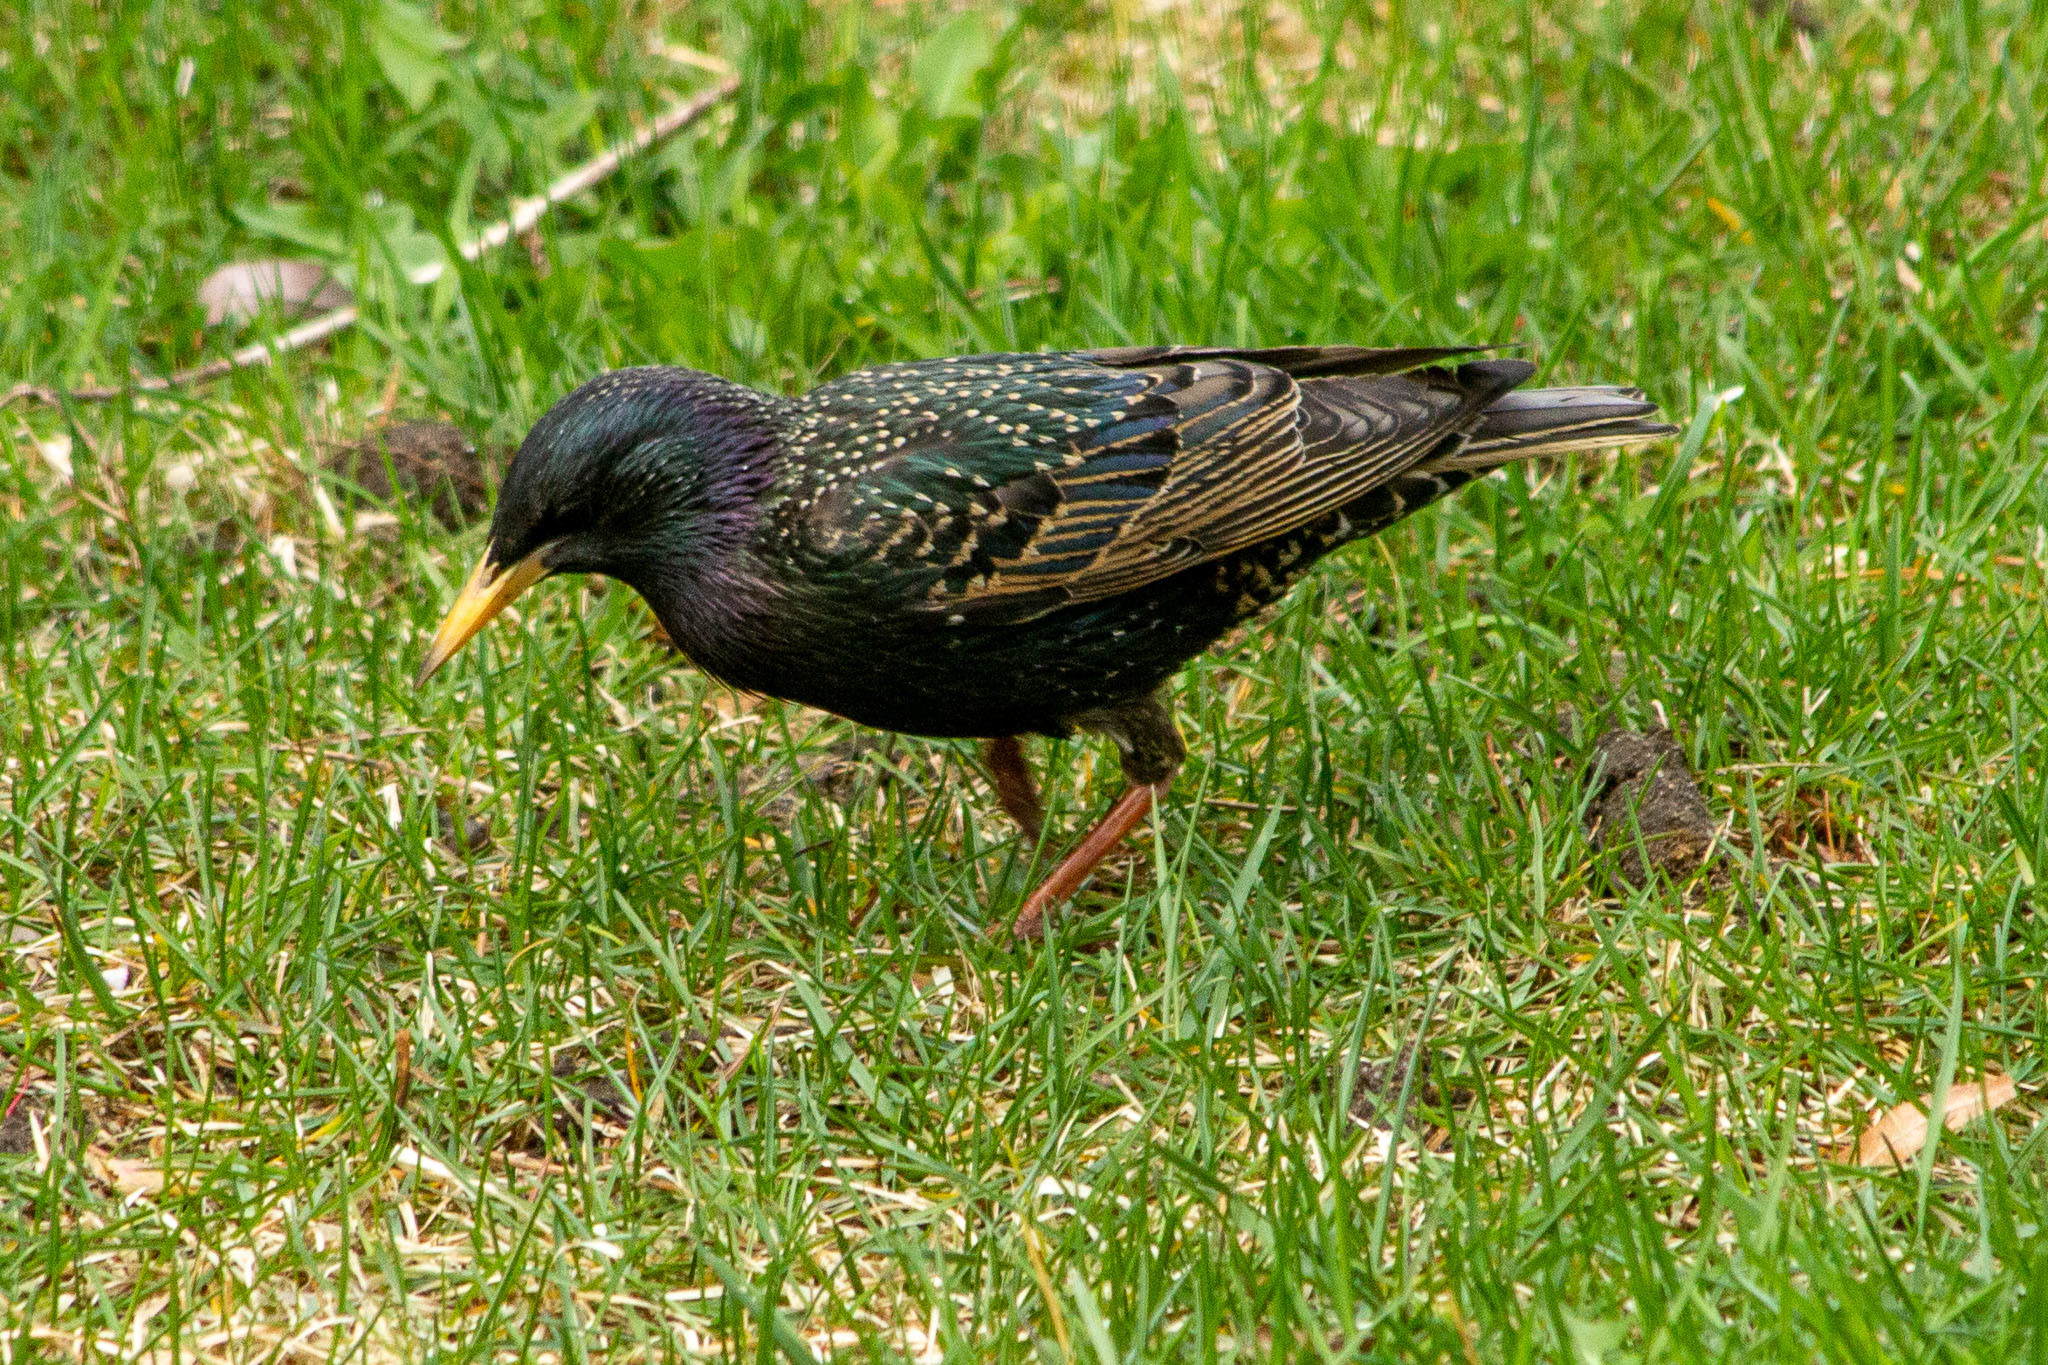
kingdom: Animalia
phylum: Chordata
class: Aves
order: Passeriformes
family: Sturnidae
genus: Sturnus
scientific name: Sturnus vulgaris
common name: Common starling
